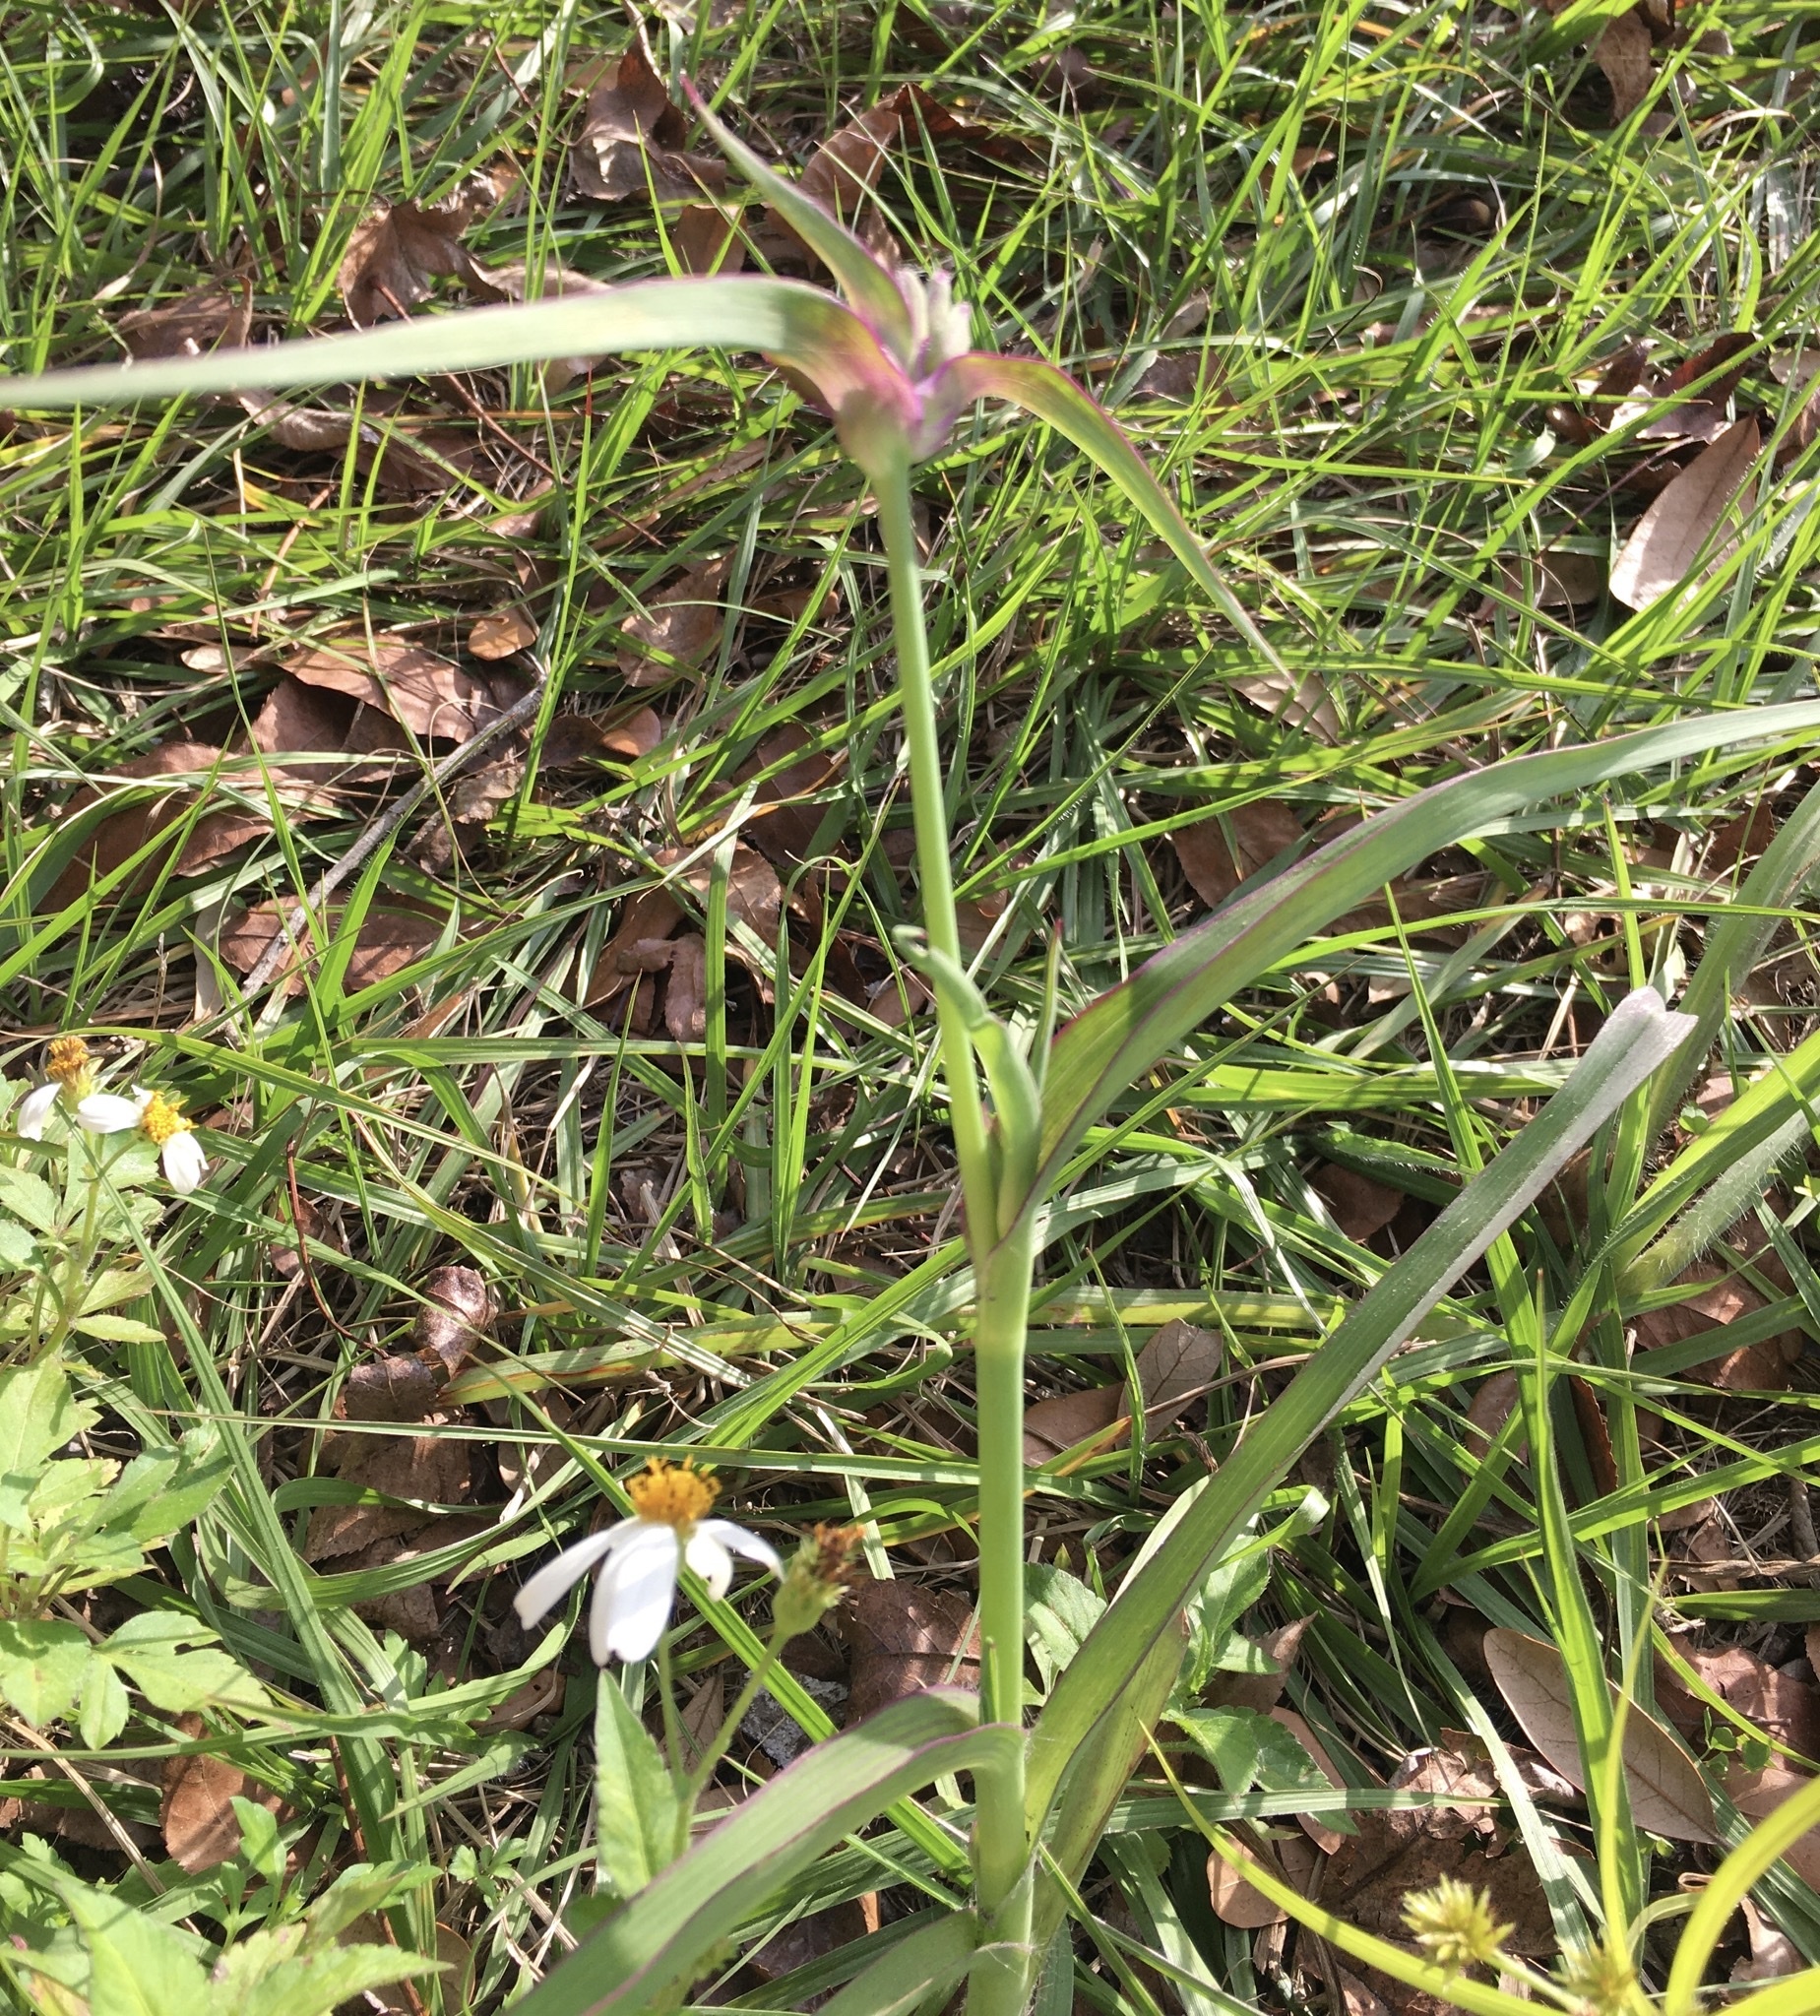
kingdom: Plantae
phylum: Tracheophyta
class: Liliopsida
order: Commelinales
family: Commelinaceae
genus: Tradescantia
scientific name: Tradescantia ohiensis
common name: Ohio spiderwort
